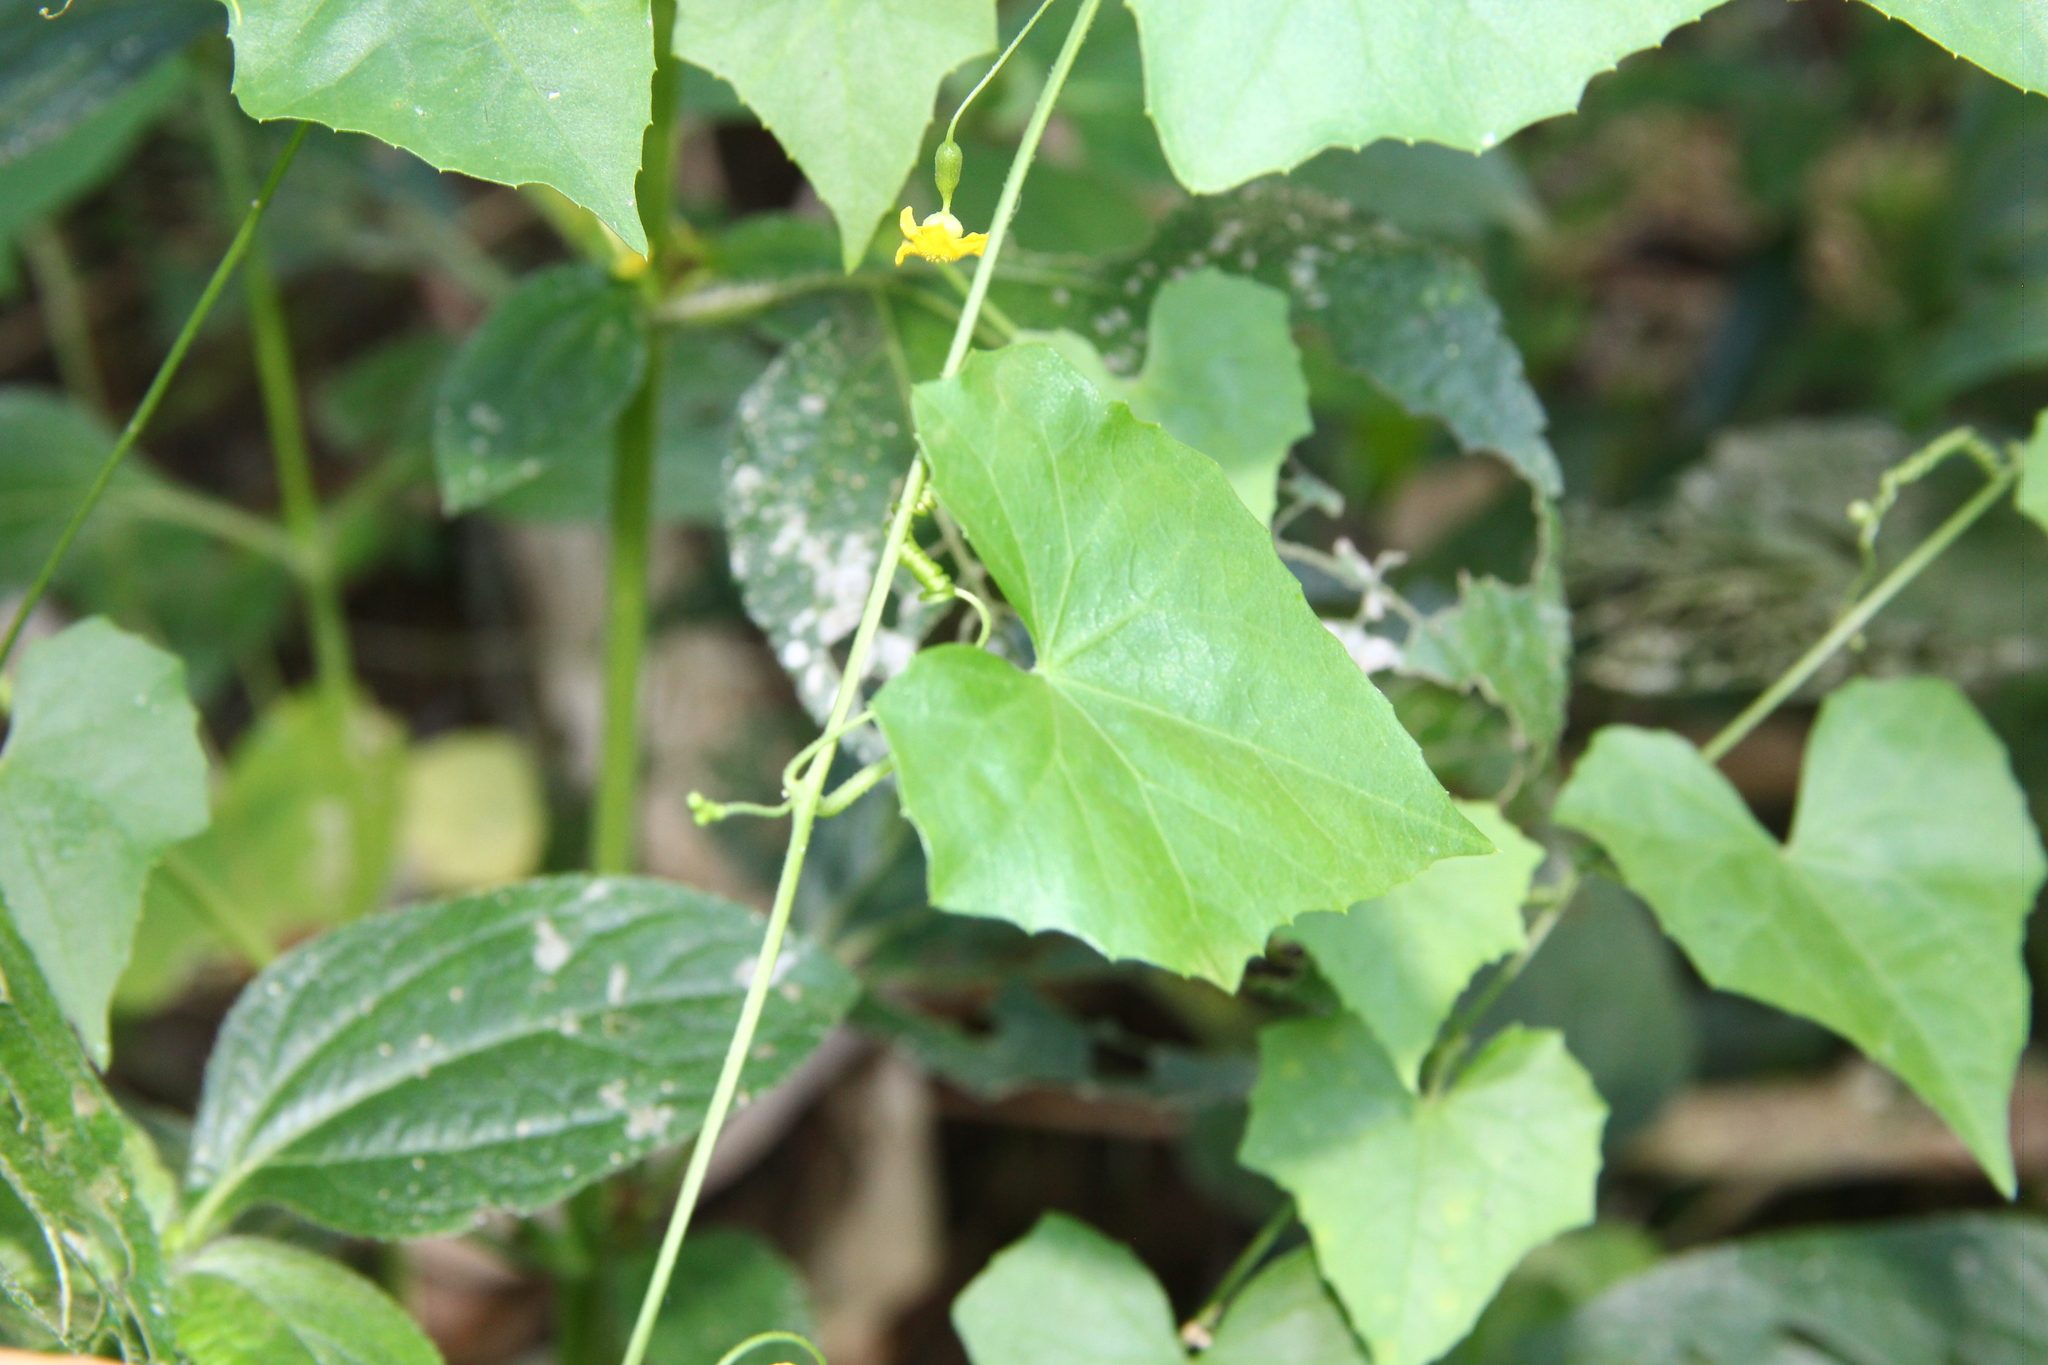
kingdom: Plantae
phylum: Tracheophyta
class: Magnoliopsida
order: Cucurbitales
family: Cucurbitaceae
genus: Melothria
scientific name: Melothria pendula
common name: Creeping-cucumber
